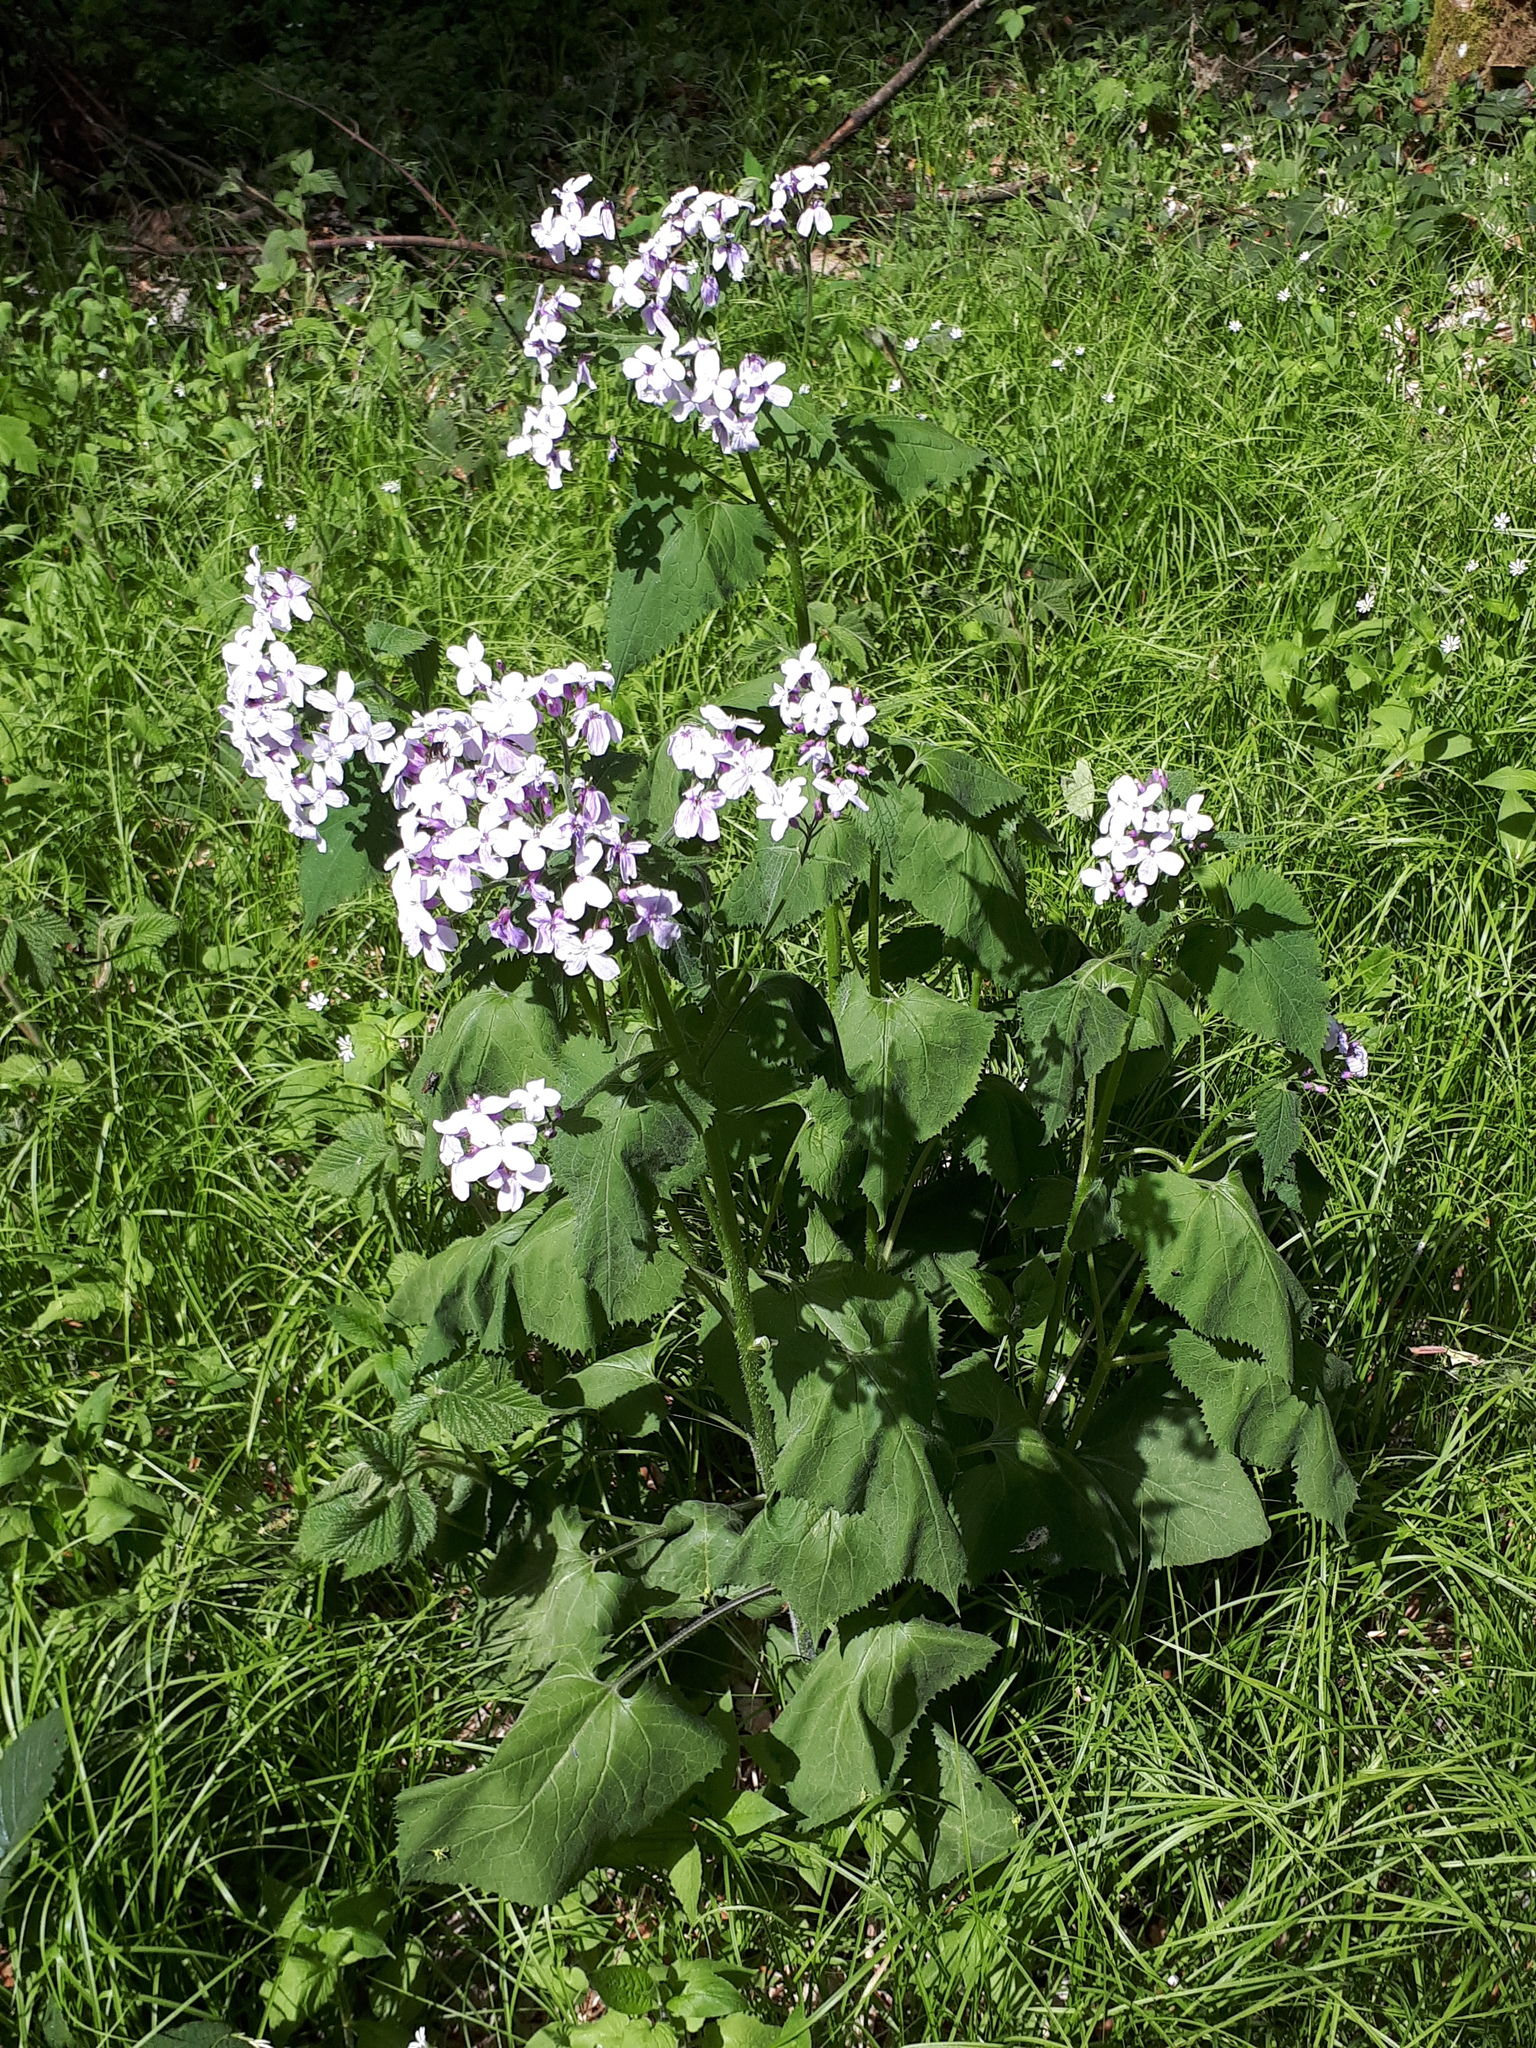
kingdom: Plantae
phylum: Tracheophyta
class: Magnoliopsida
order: Brassicales
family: Brassicaceae
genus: Lunaria
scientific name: Lunaria rediviva
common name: Perennial honesty
